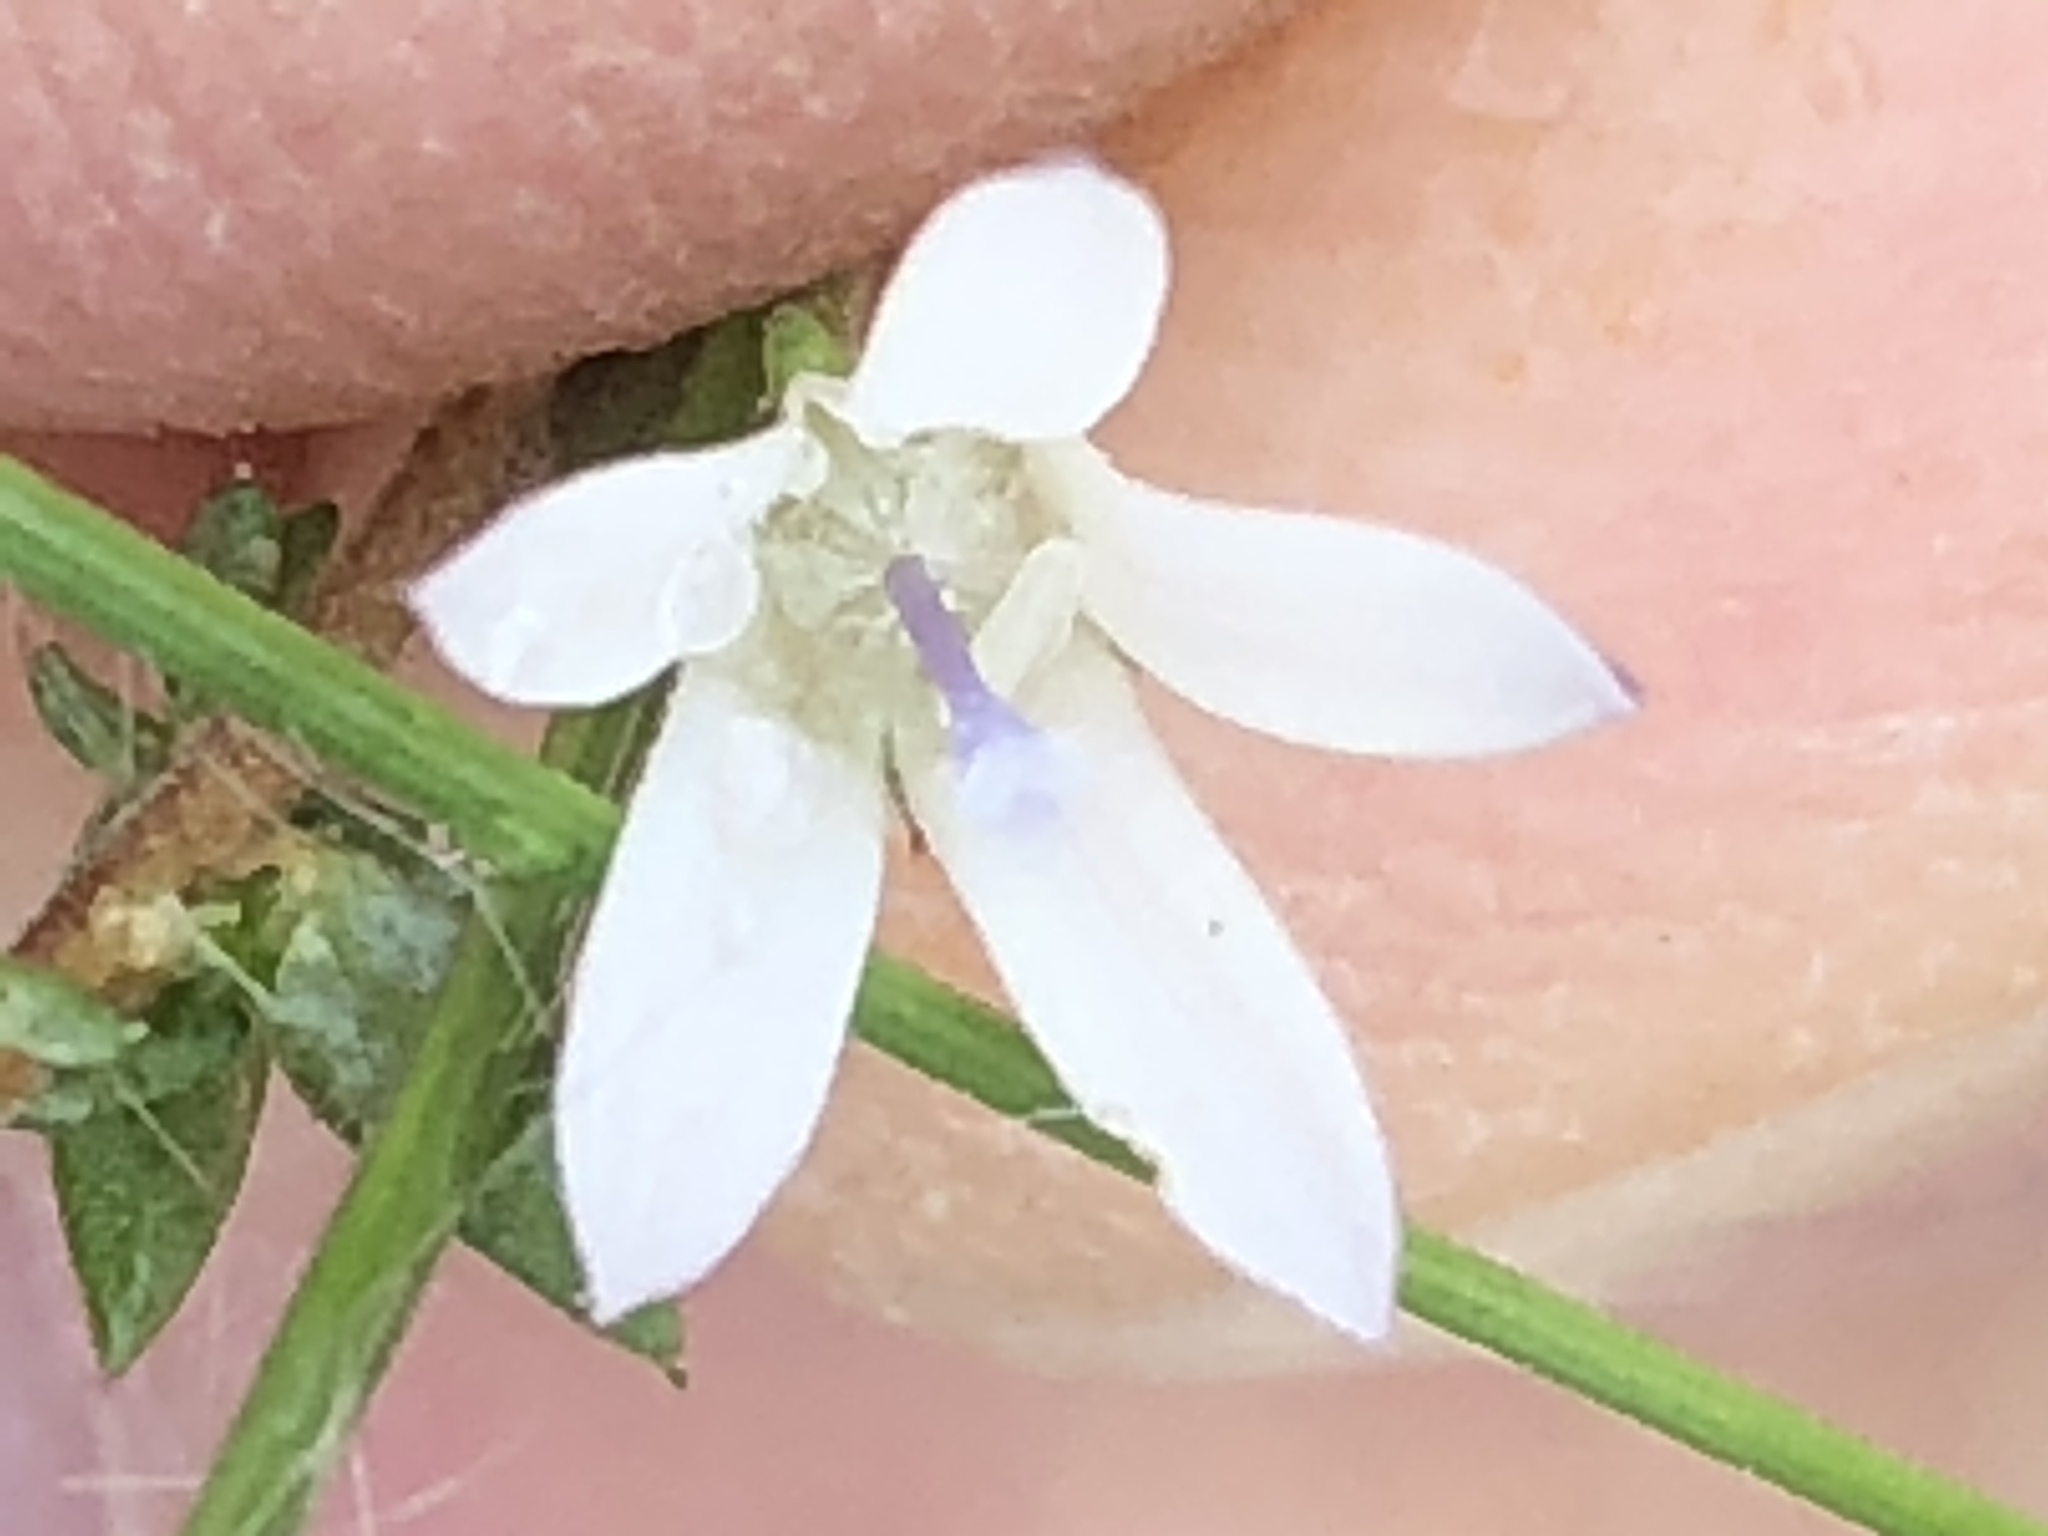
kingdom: Plantae
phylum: Tracheophyta
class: Magnoliopsida
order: Asterales
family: Campanulaceae
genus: Wahlenbergia
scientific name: Wahlenbergia loddigesii
